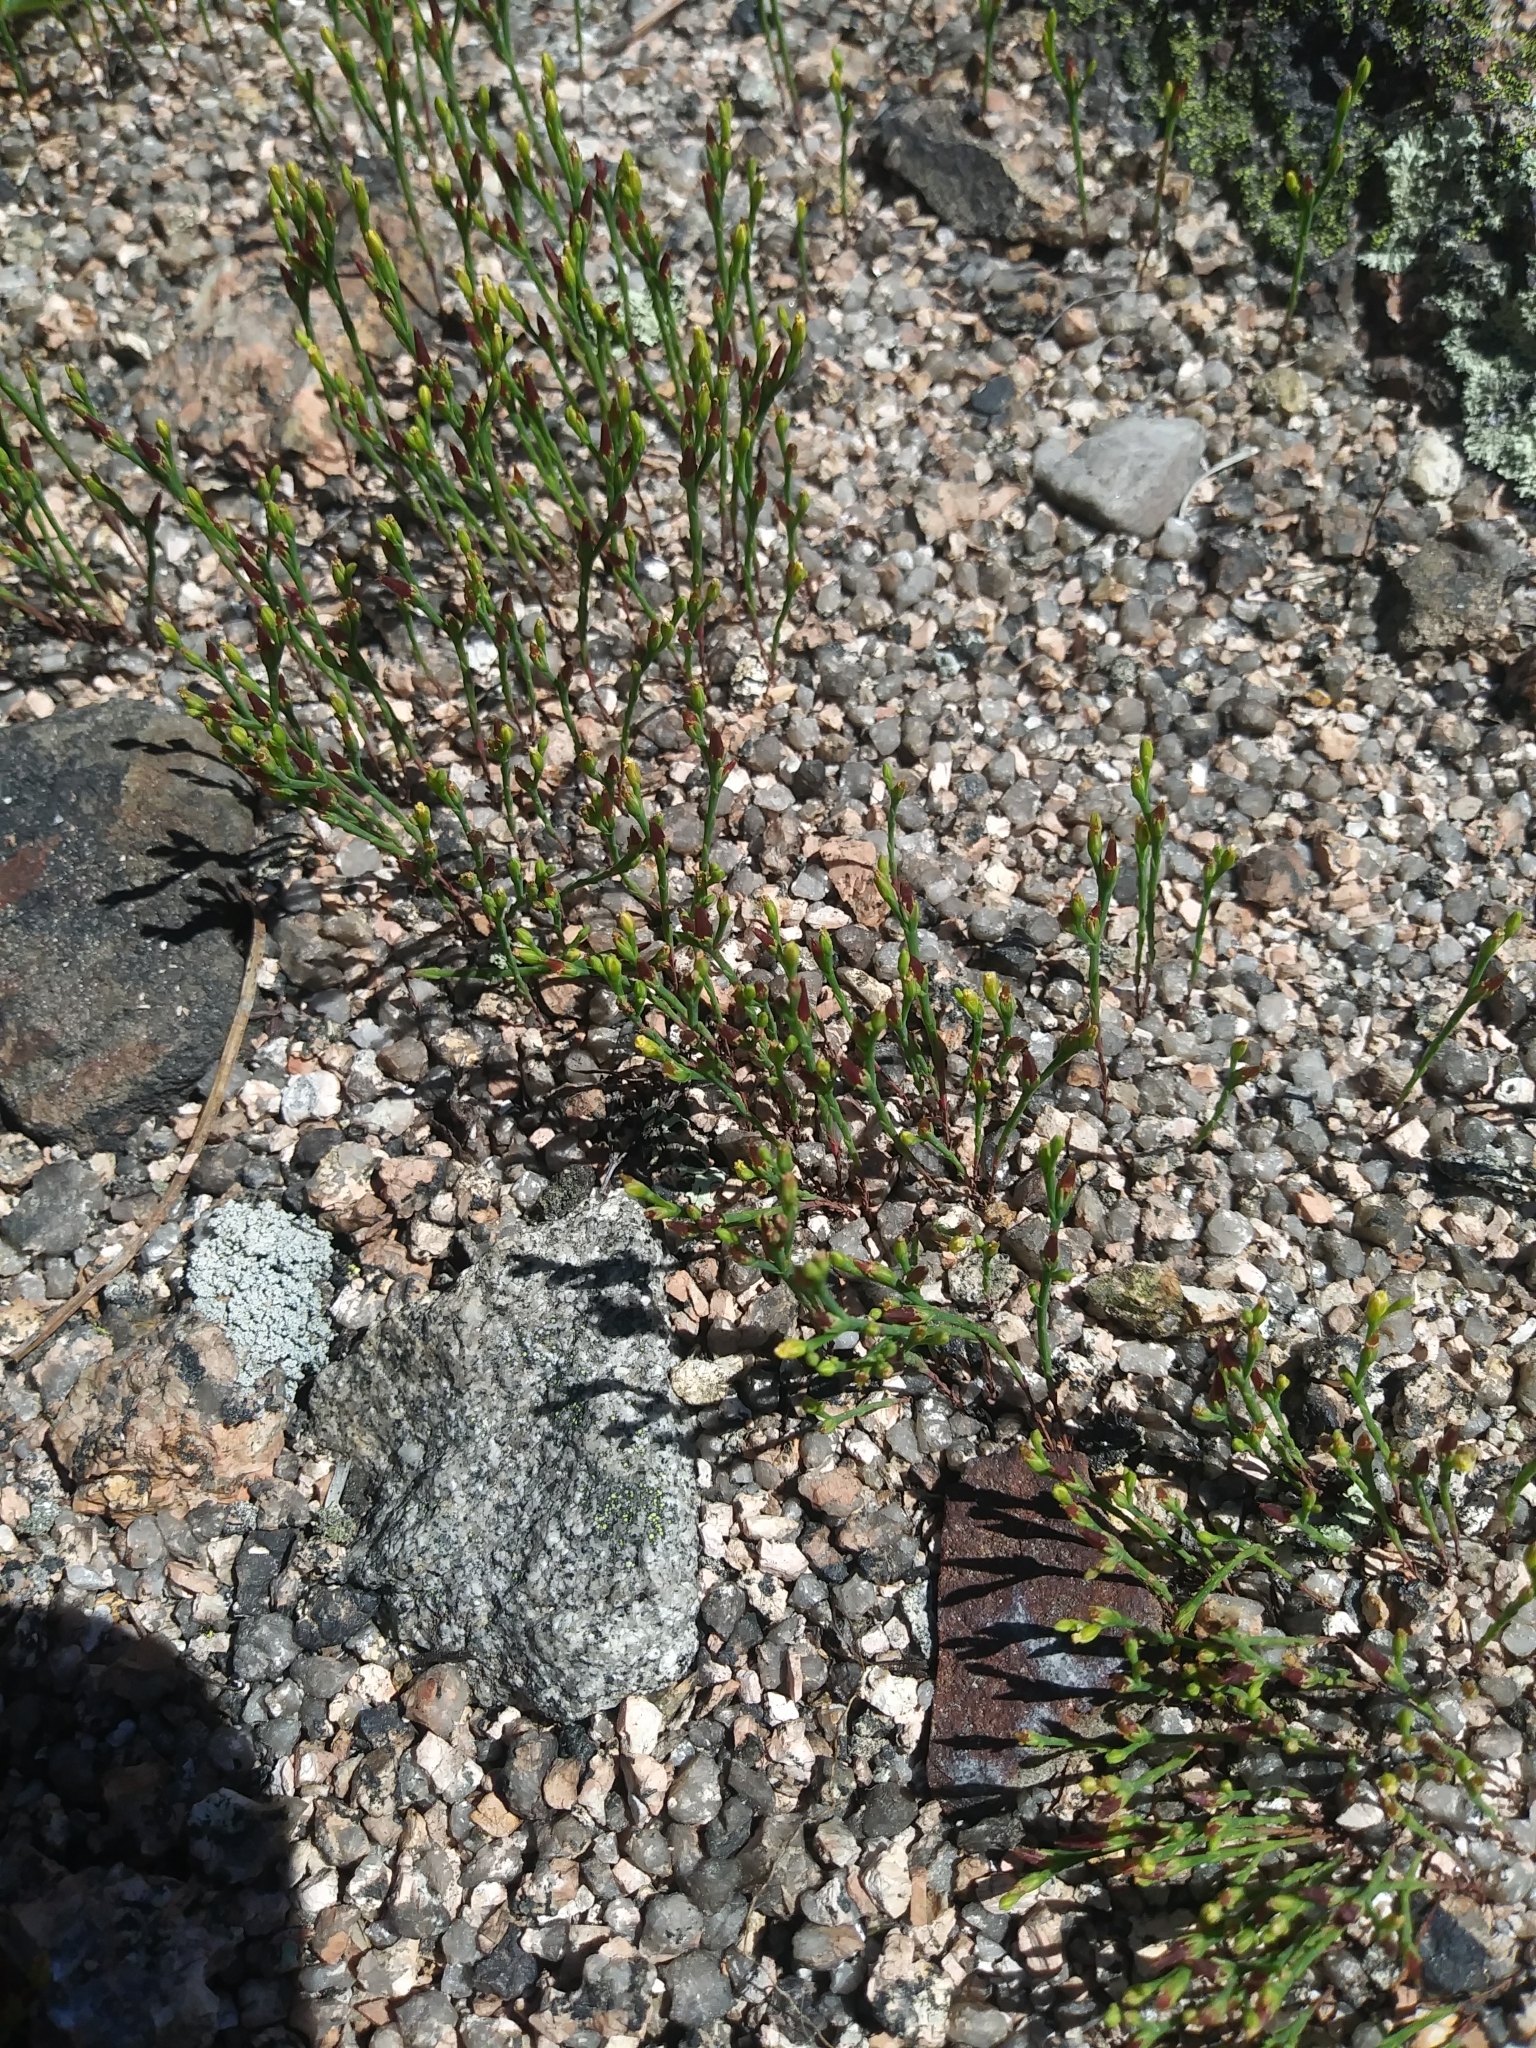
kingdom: Plantae
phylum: Tracheophyta
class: Magnoliopsida
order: Malpighiales
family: Hypericaceae
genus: Hypericum
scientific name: Hypericum gentianoides
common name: Gentian-leaved st. john's-wort
